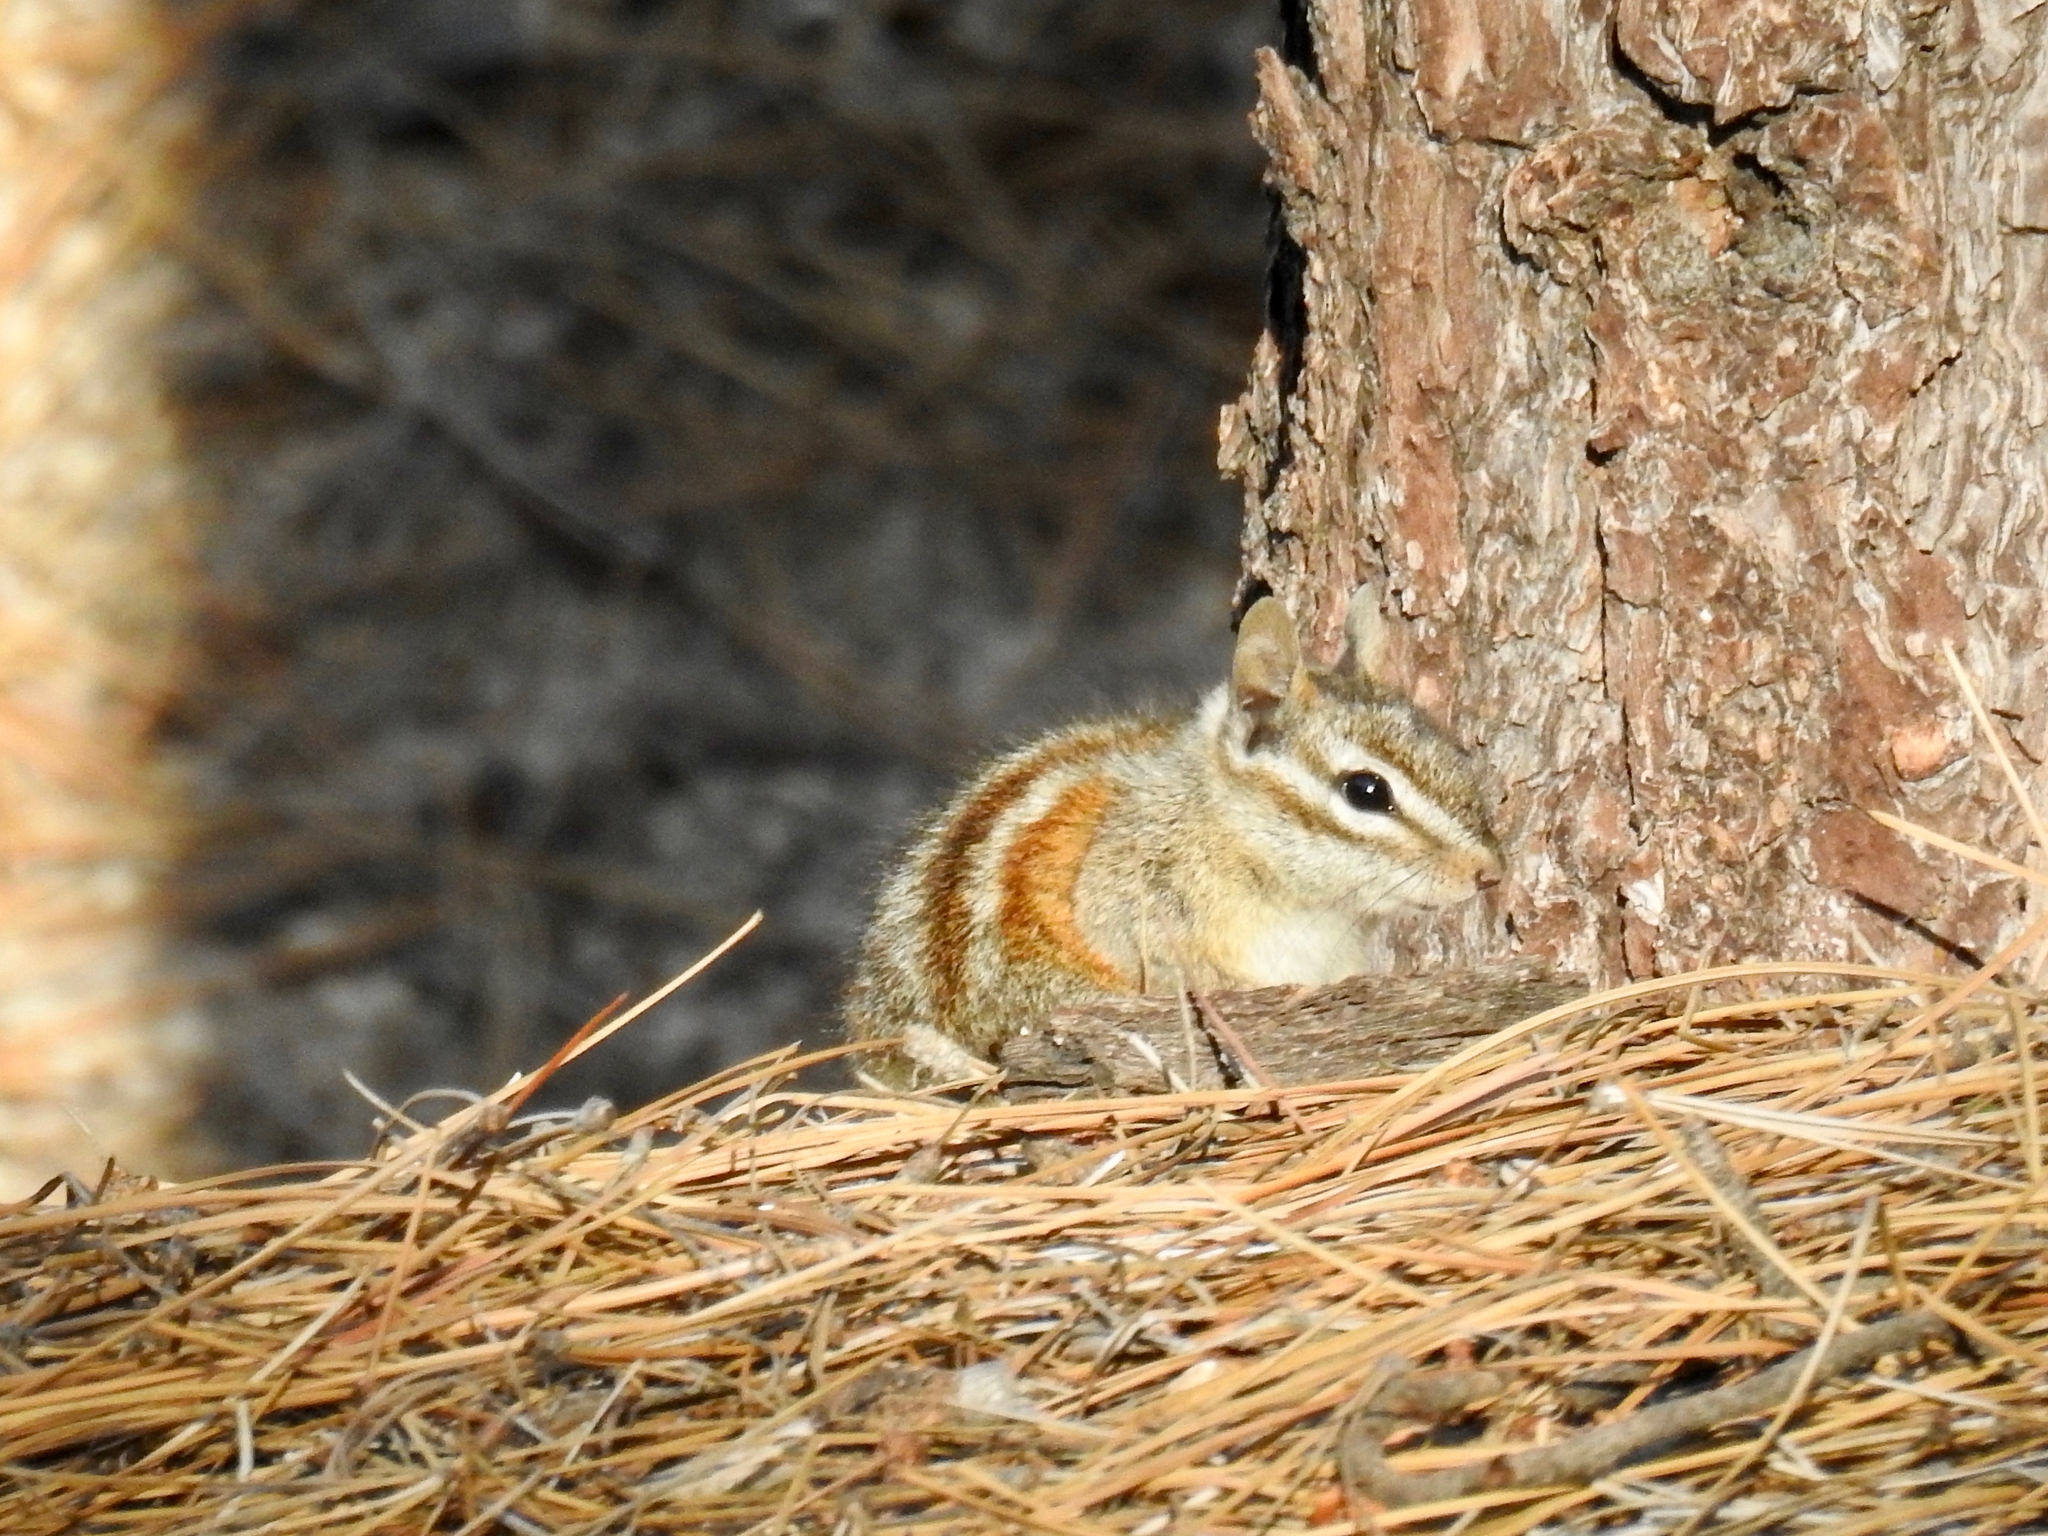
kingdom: Animalia
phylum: Chordata
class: Mammalia
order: Rodentia
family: Sciuridae
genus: Tamias
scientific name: Tamias merriami
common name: Merriam's chipmunk
